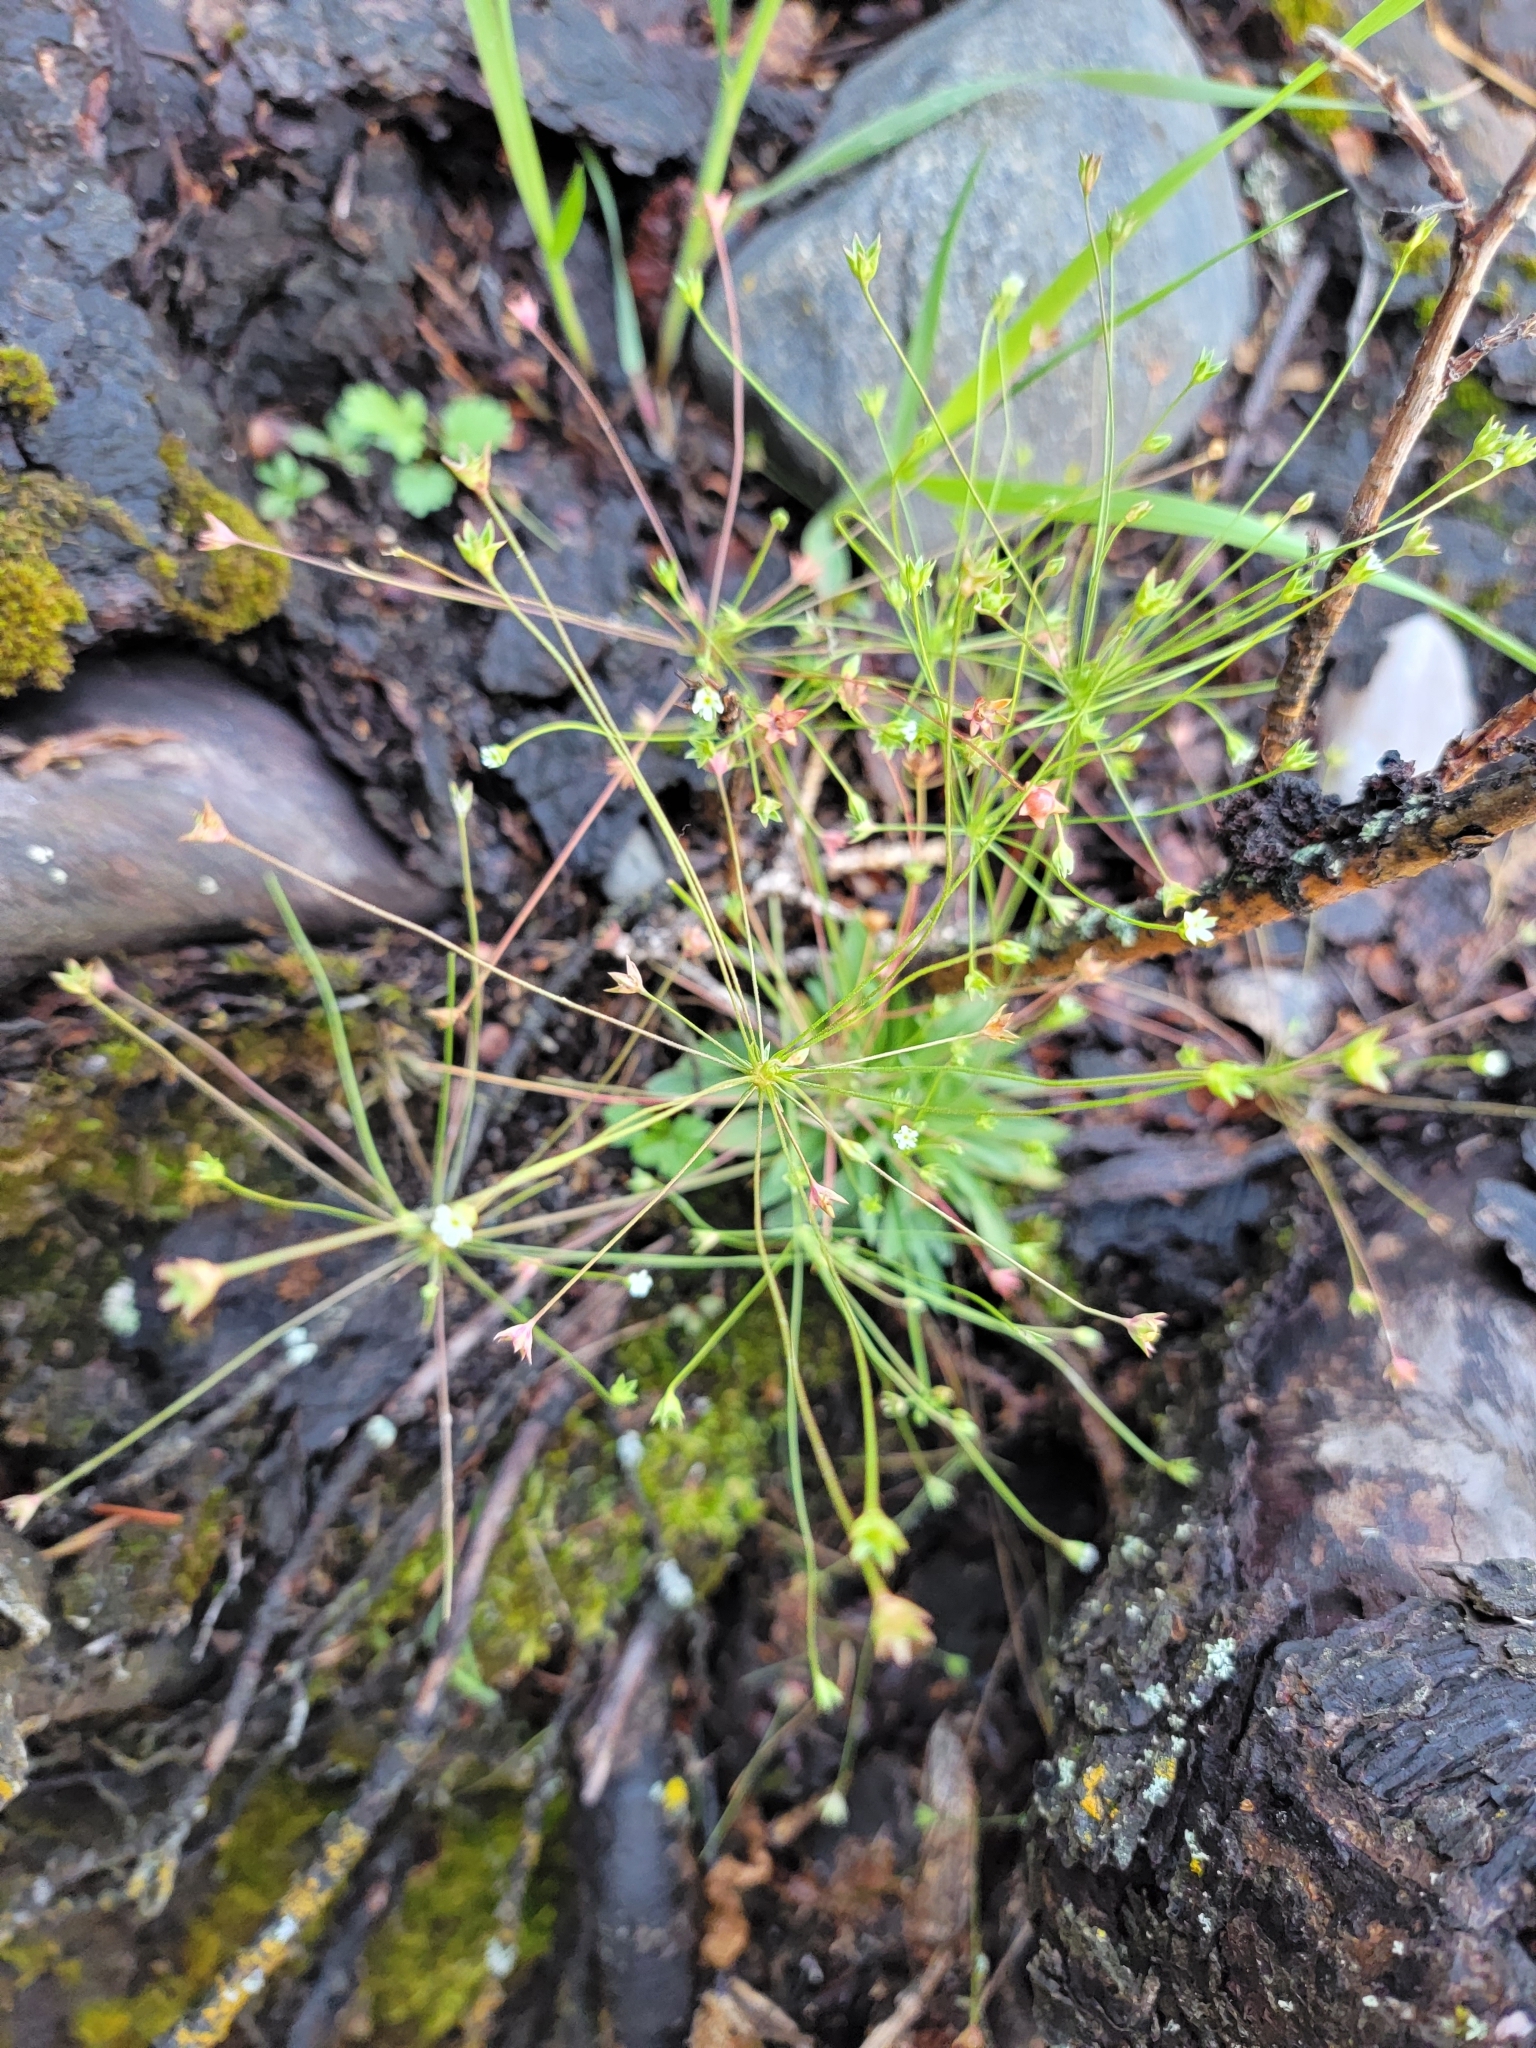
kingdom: Plantae
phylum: Tracheophyta
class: Magnoliopsida
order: Ericales
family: Primulaceae
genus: Androsace
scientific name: Androsace septentrionalis
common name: Hairy northern fairy-candelabra
